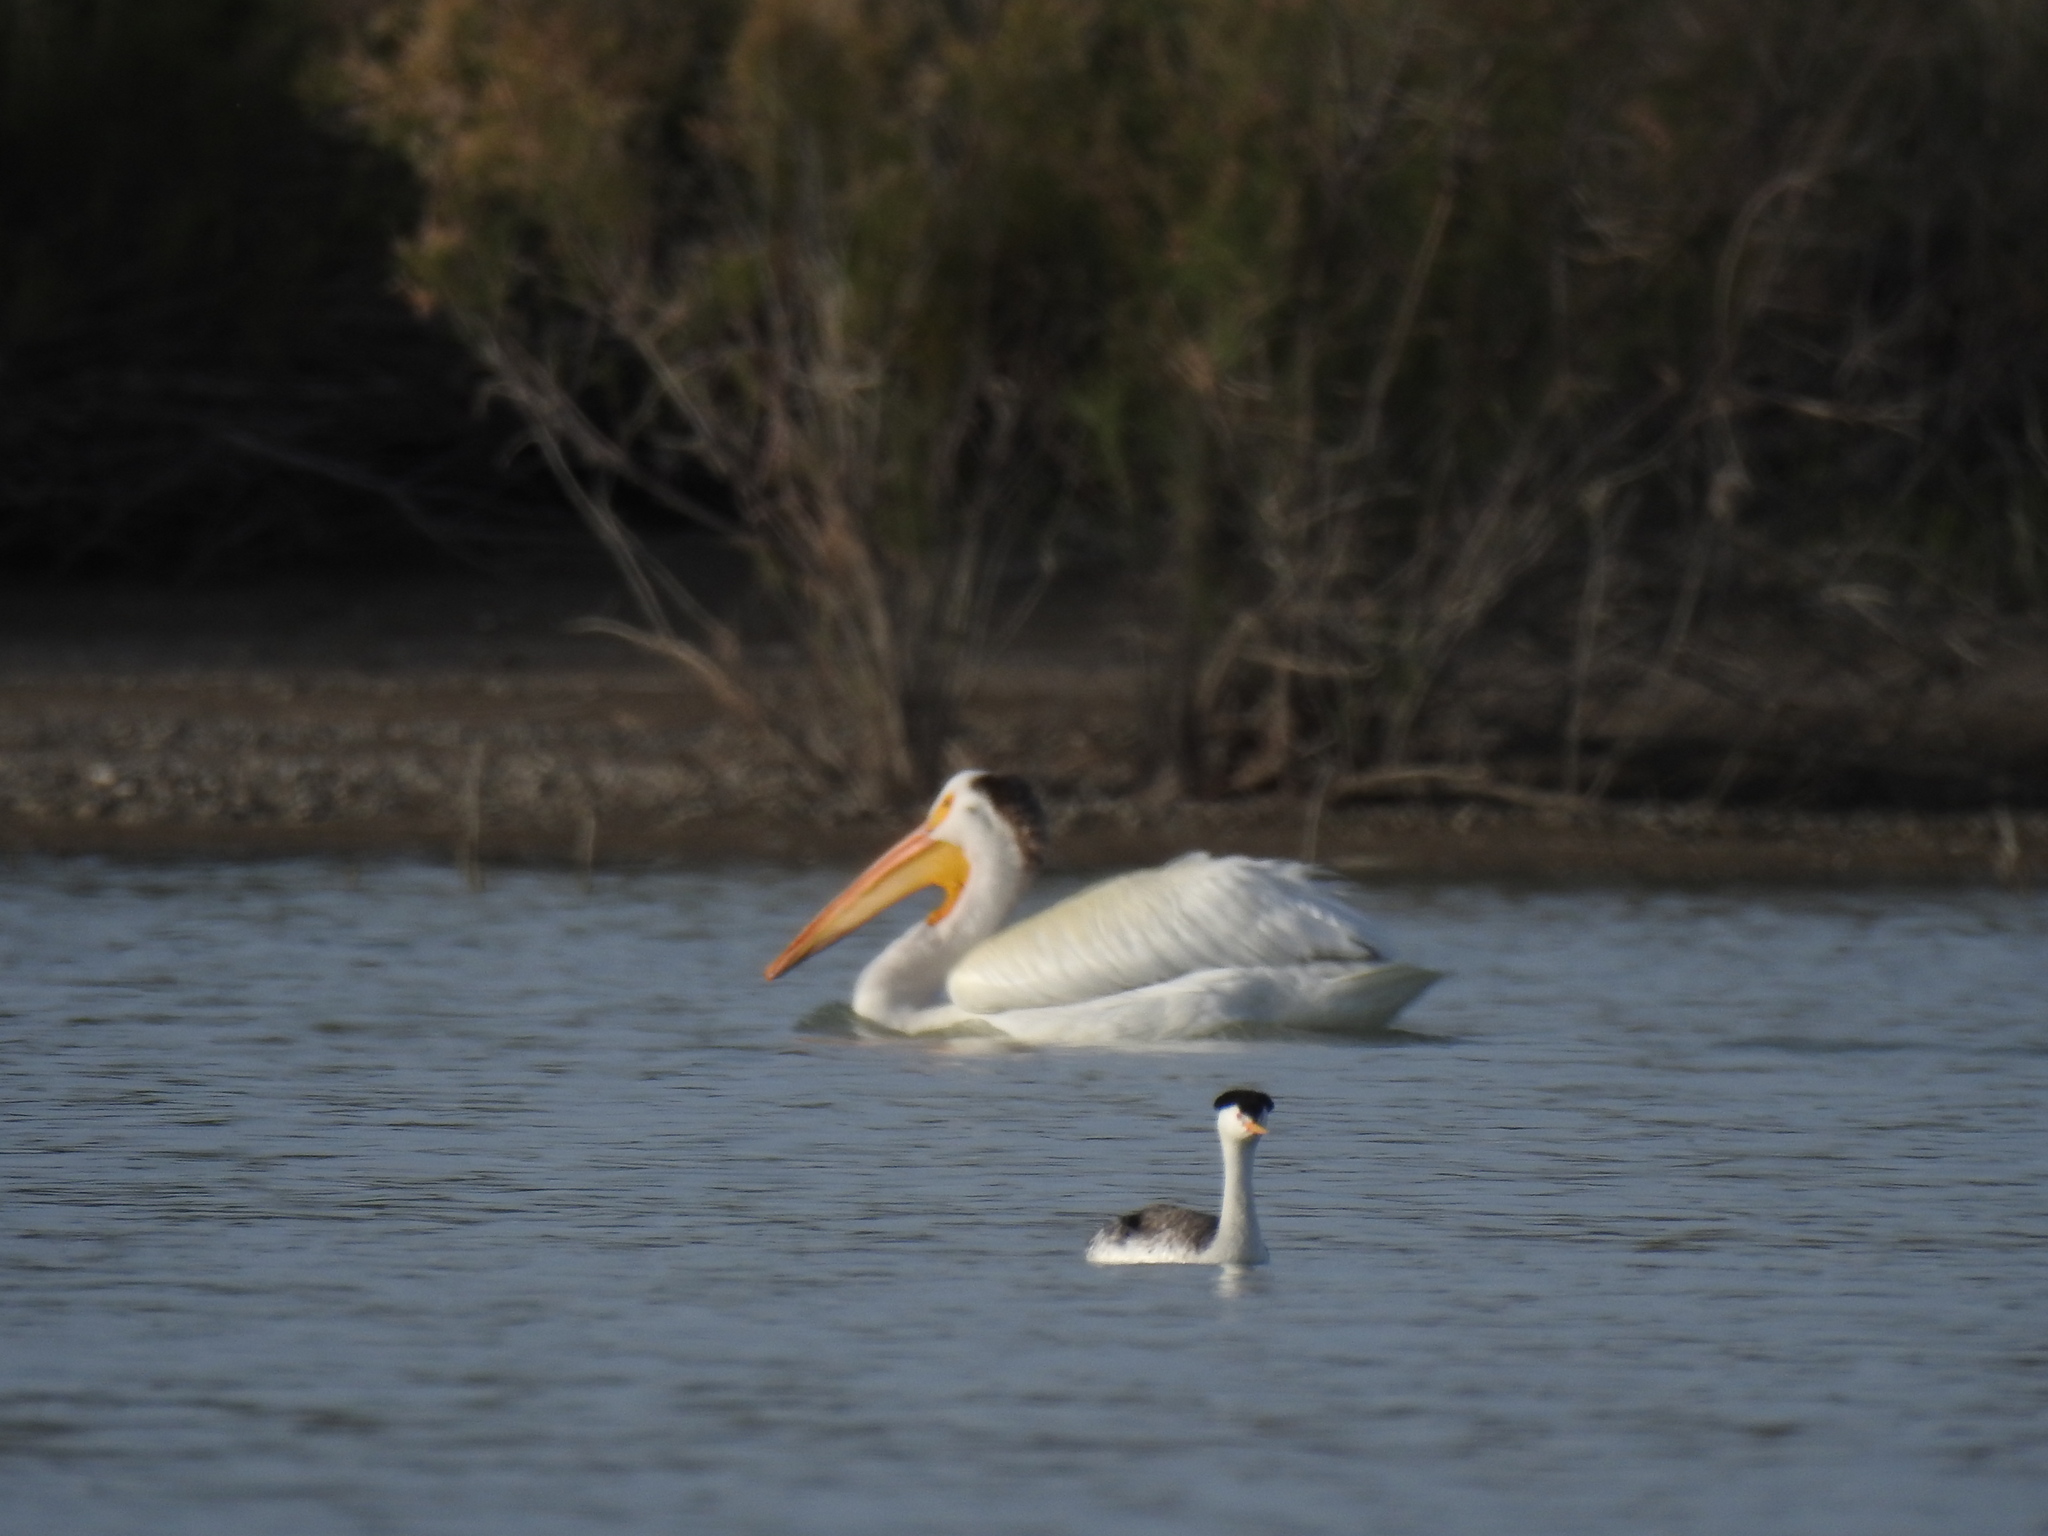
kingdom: Animalia
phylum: Chordata
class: Aves
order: Podicipediformes
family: Podicipedidae
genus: Aechmophorus
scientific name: Aechmophorus clarkii
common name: Clark's grebe
